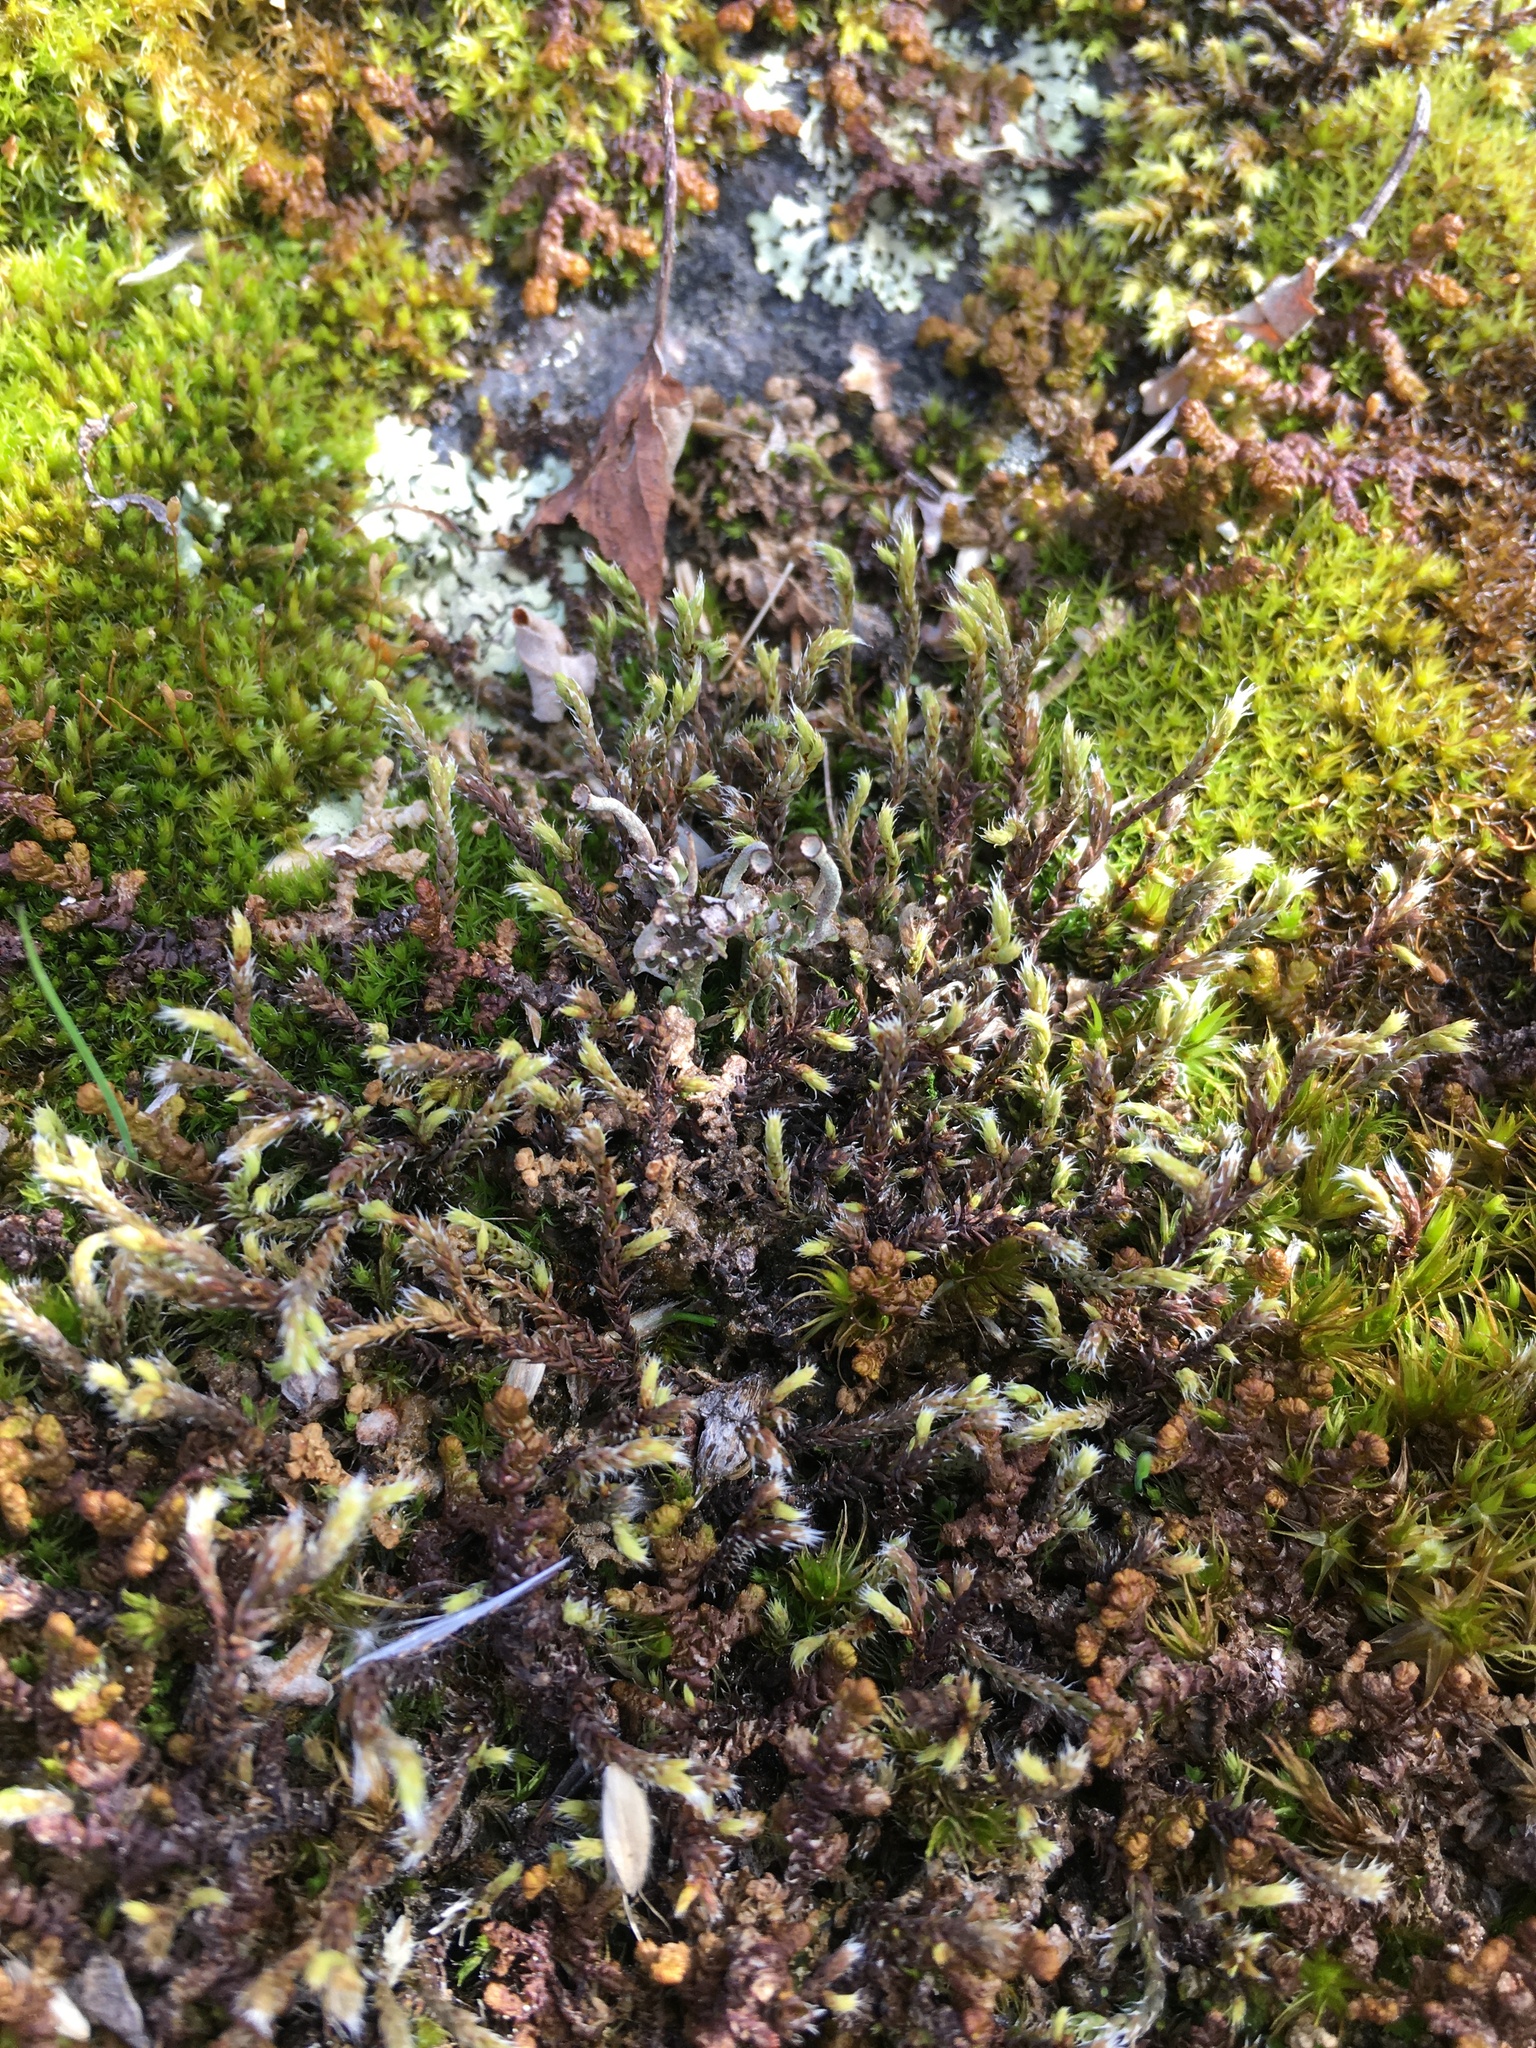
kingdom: Plantae
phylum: Bryophyta
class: Bryopsida
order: Hedwigiales
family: Hedwigiaceae
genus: Hedwigia
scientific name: Hedwigia ciliata
